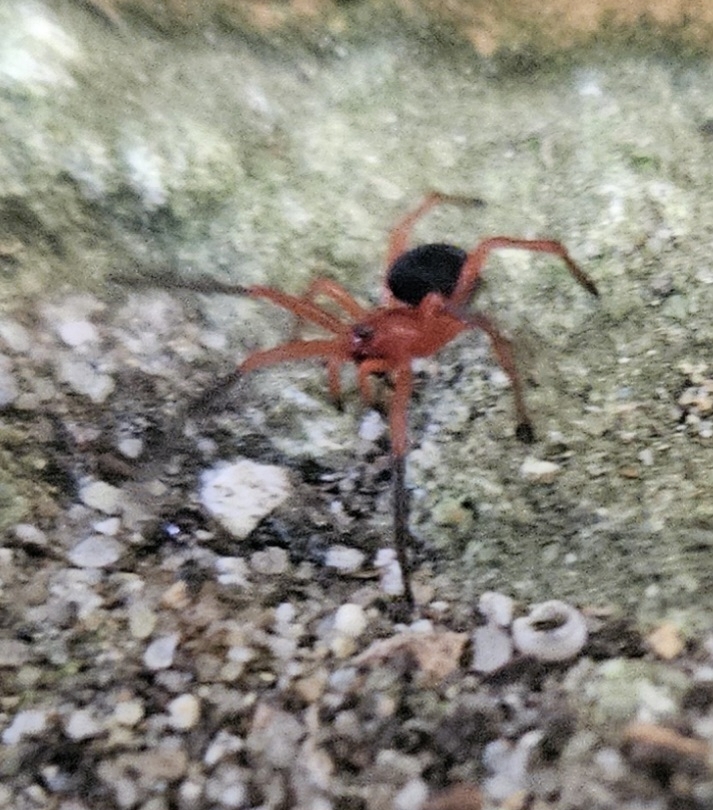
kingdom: Animalia
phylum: Arthropoda
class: Arachnida
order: Araneae
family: Nicodamidae
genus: Nicodamus
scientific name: Nicodamus peregrinus
